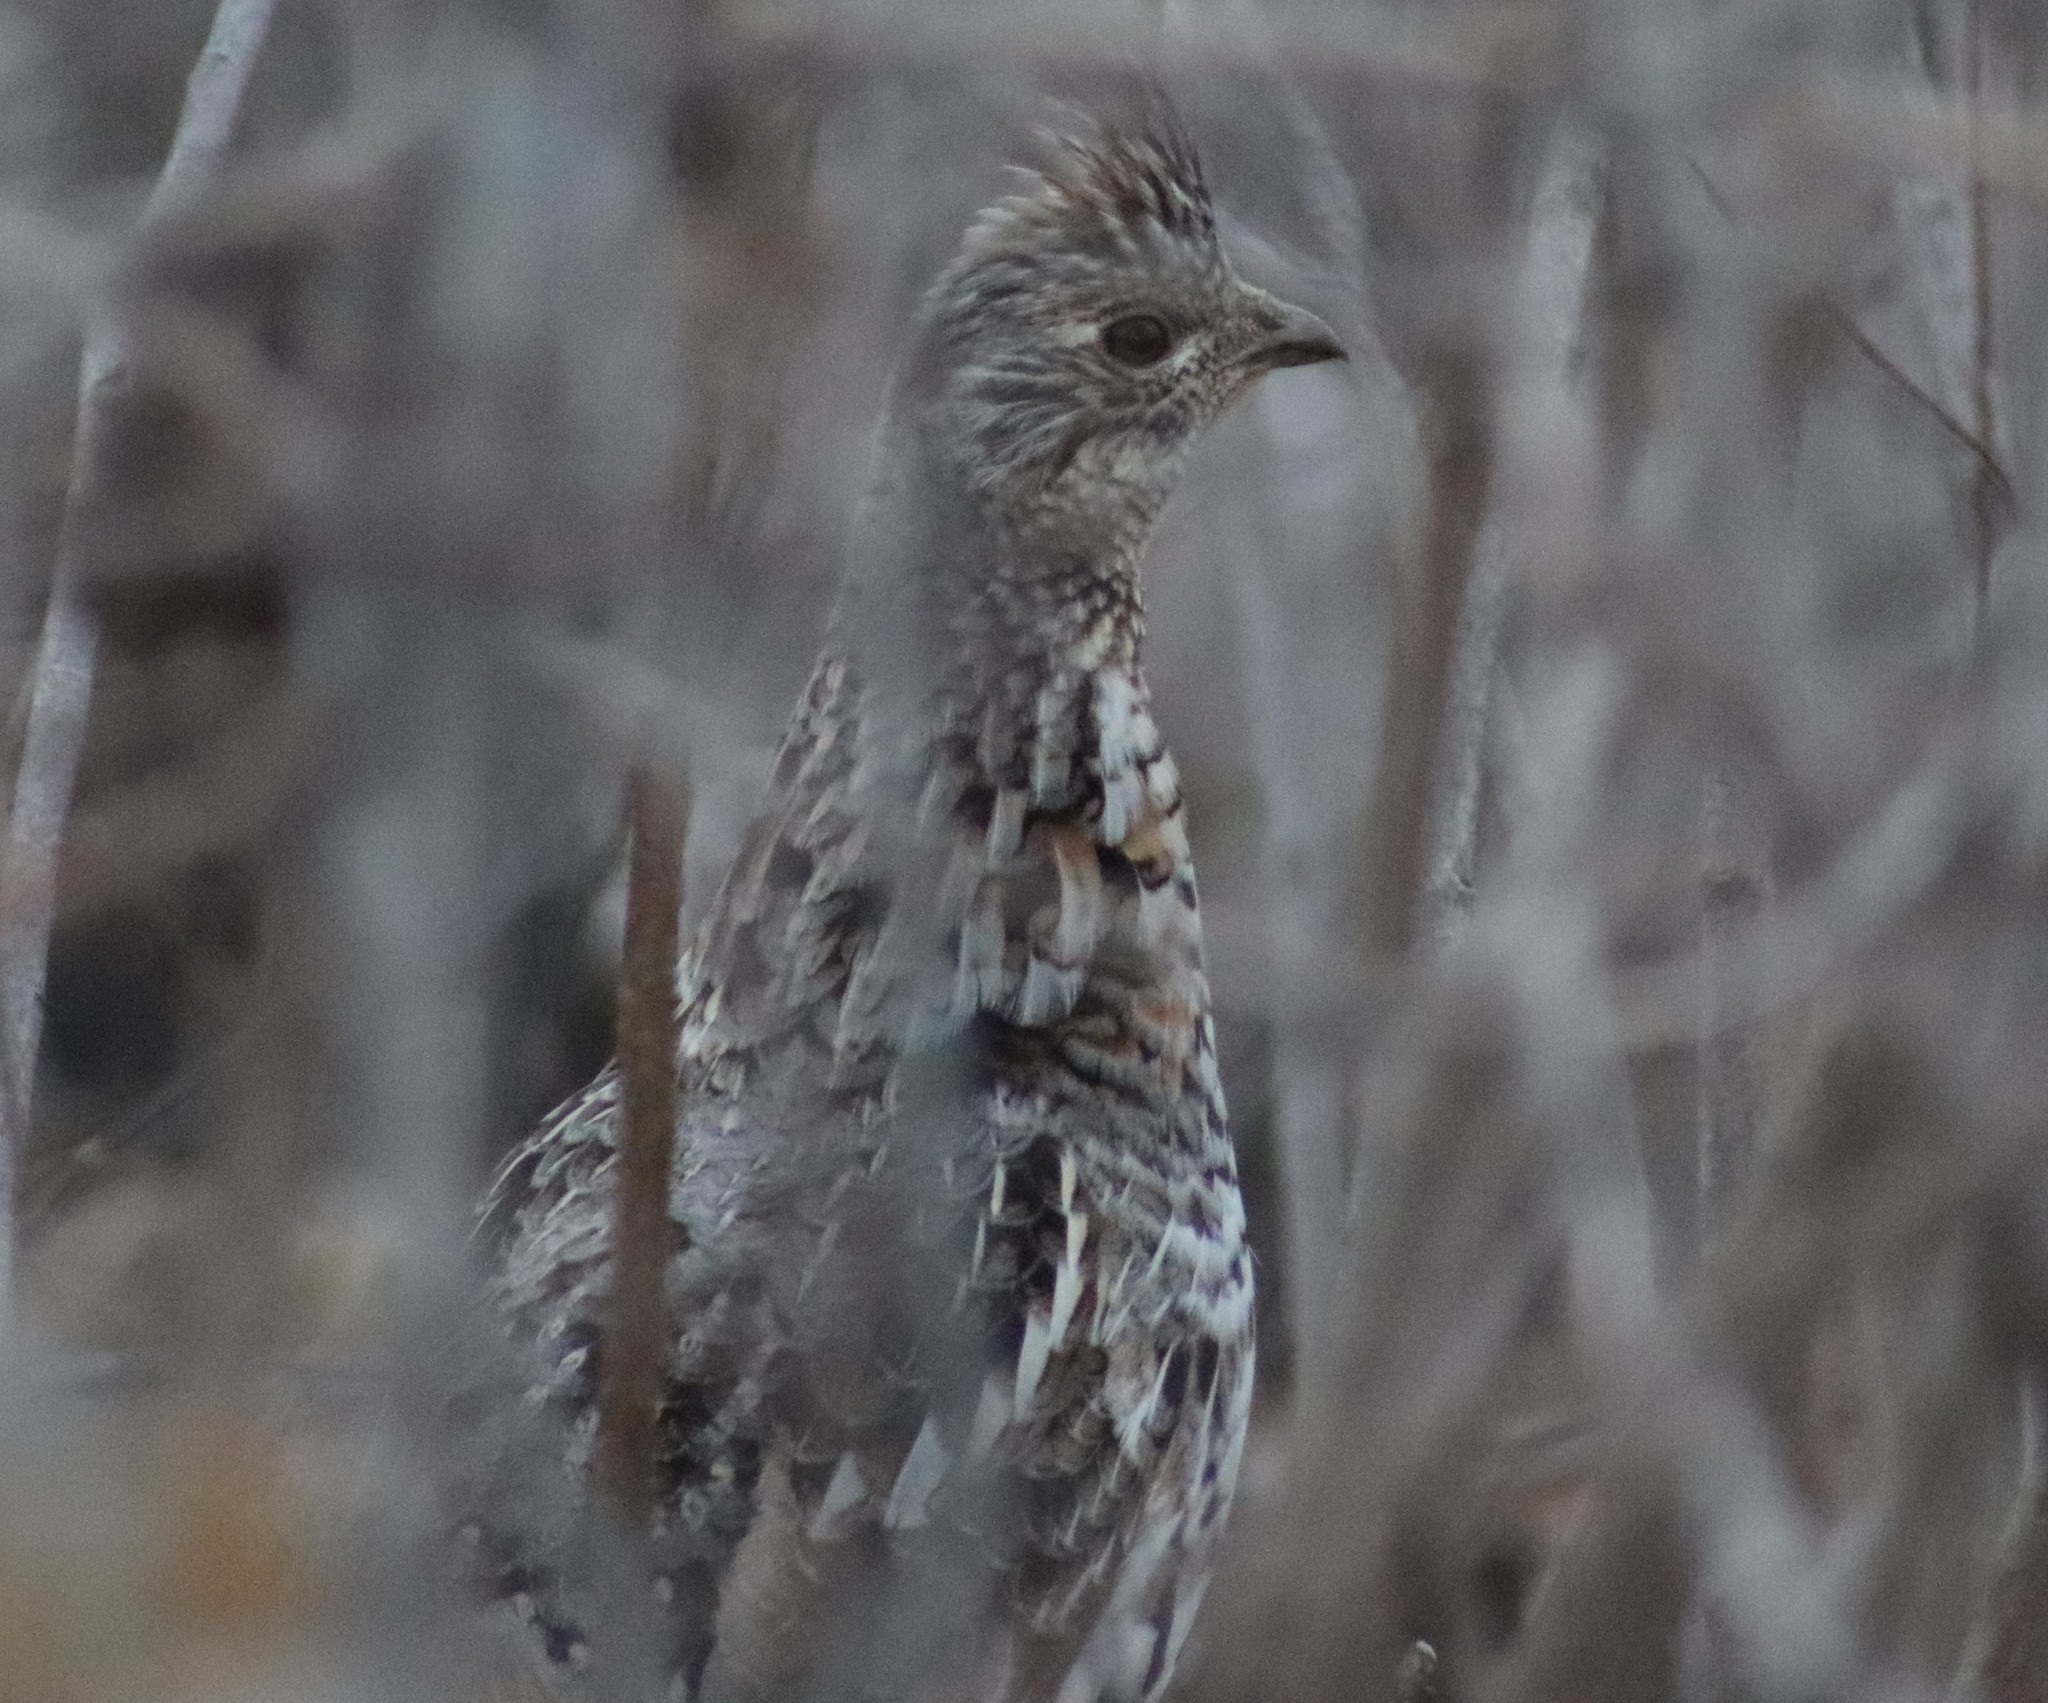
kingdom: Animalia
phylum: Chordata
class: Aves
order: Galliformes
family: Phasianidae
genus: Bonasa
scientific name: Bonasa umbellus
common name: Ruffed grouse
